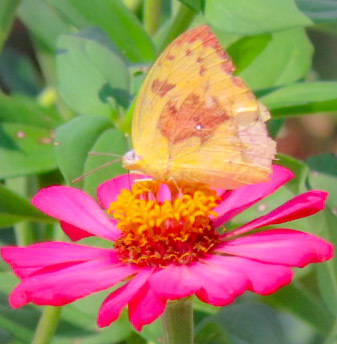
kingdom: Animalia
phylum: Arthropoda
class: Insecta
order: Lepidoptera
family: Pieridae
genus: Catopsilia
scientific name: Catopsilia pomona
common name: Common emigrant
